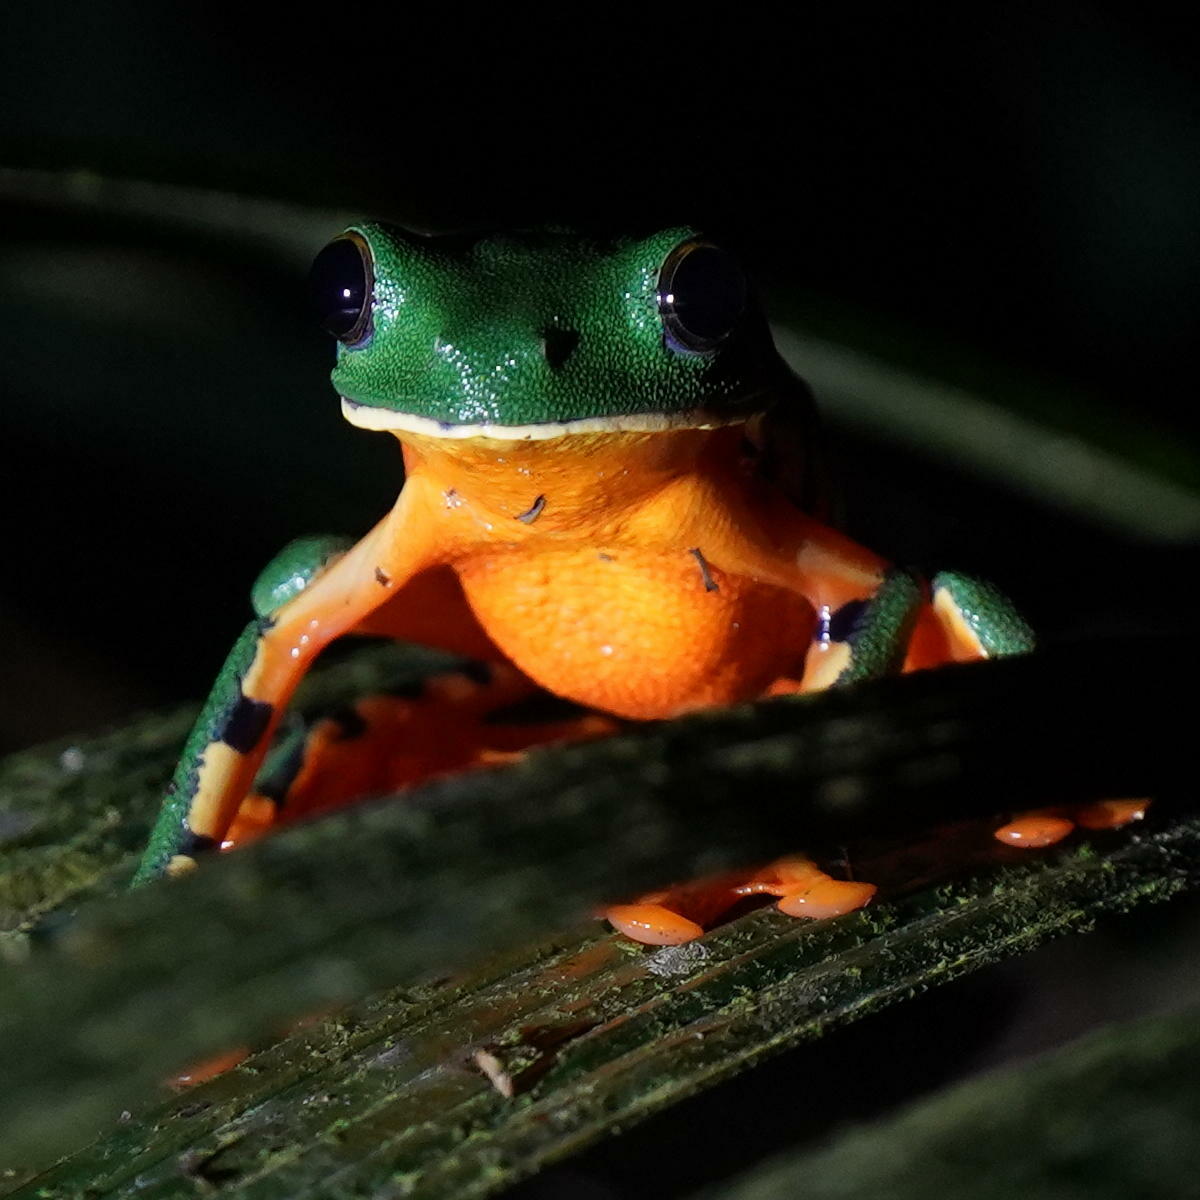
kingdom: Animalia
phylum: Chordata
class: Amphibia
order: Anura
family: Phyllomedusidae
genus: Cruziohyla
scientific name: Cruziohyla sylviae
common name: Sylvia's tree frog
